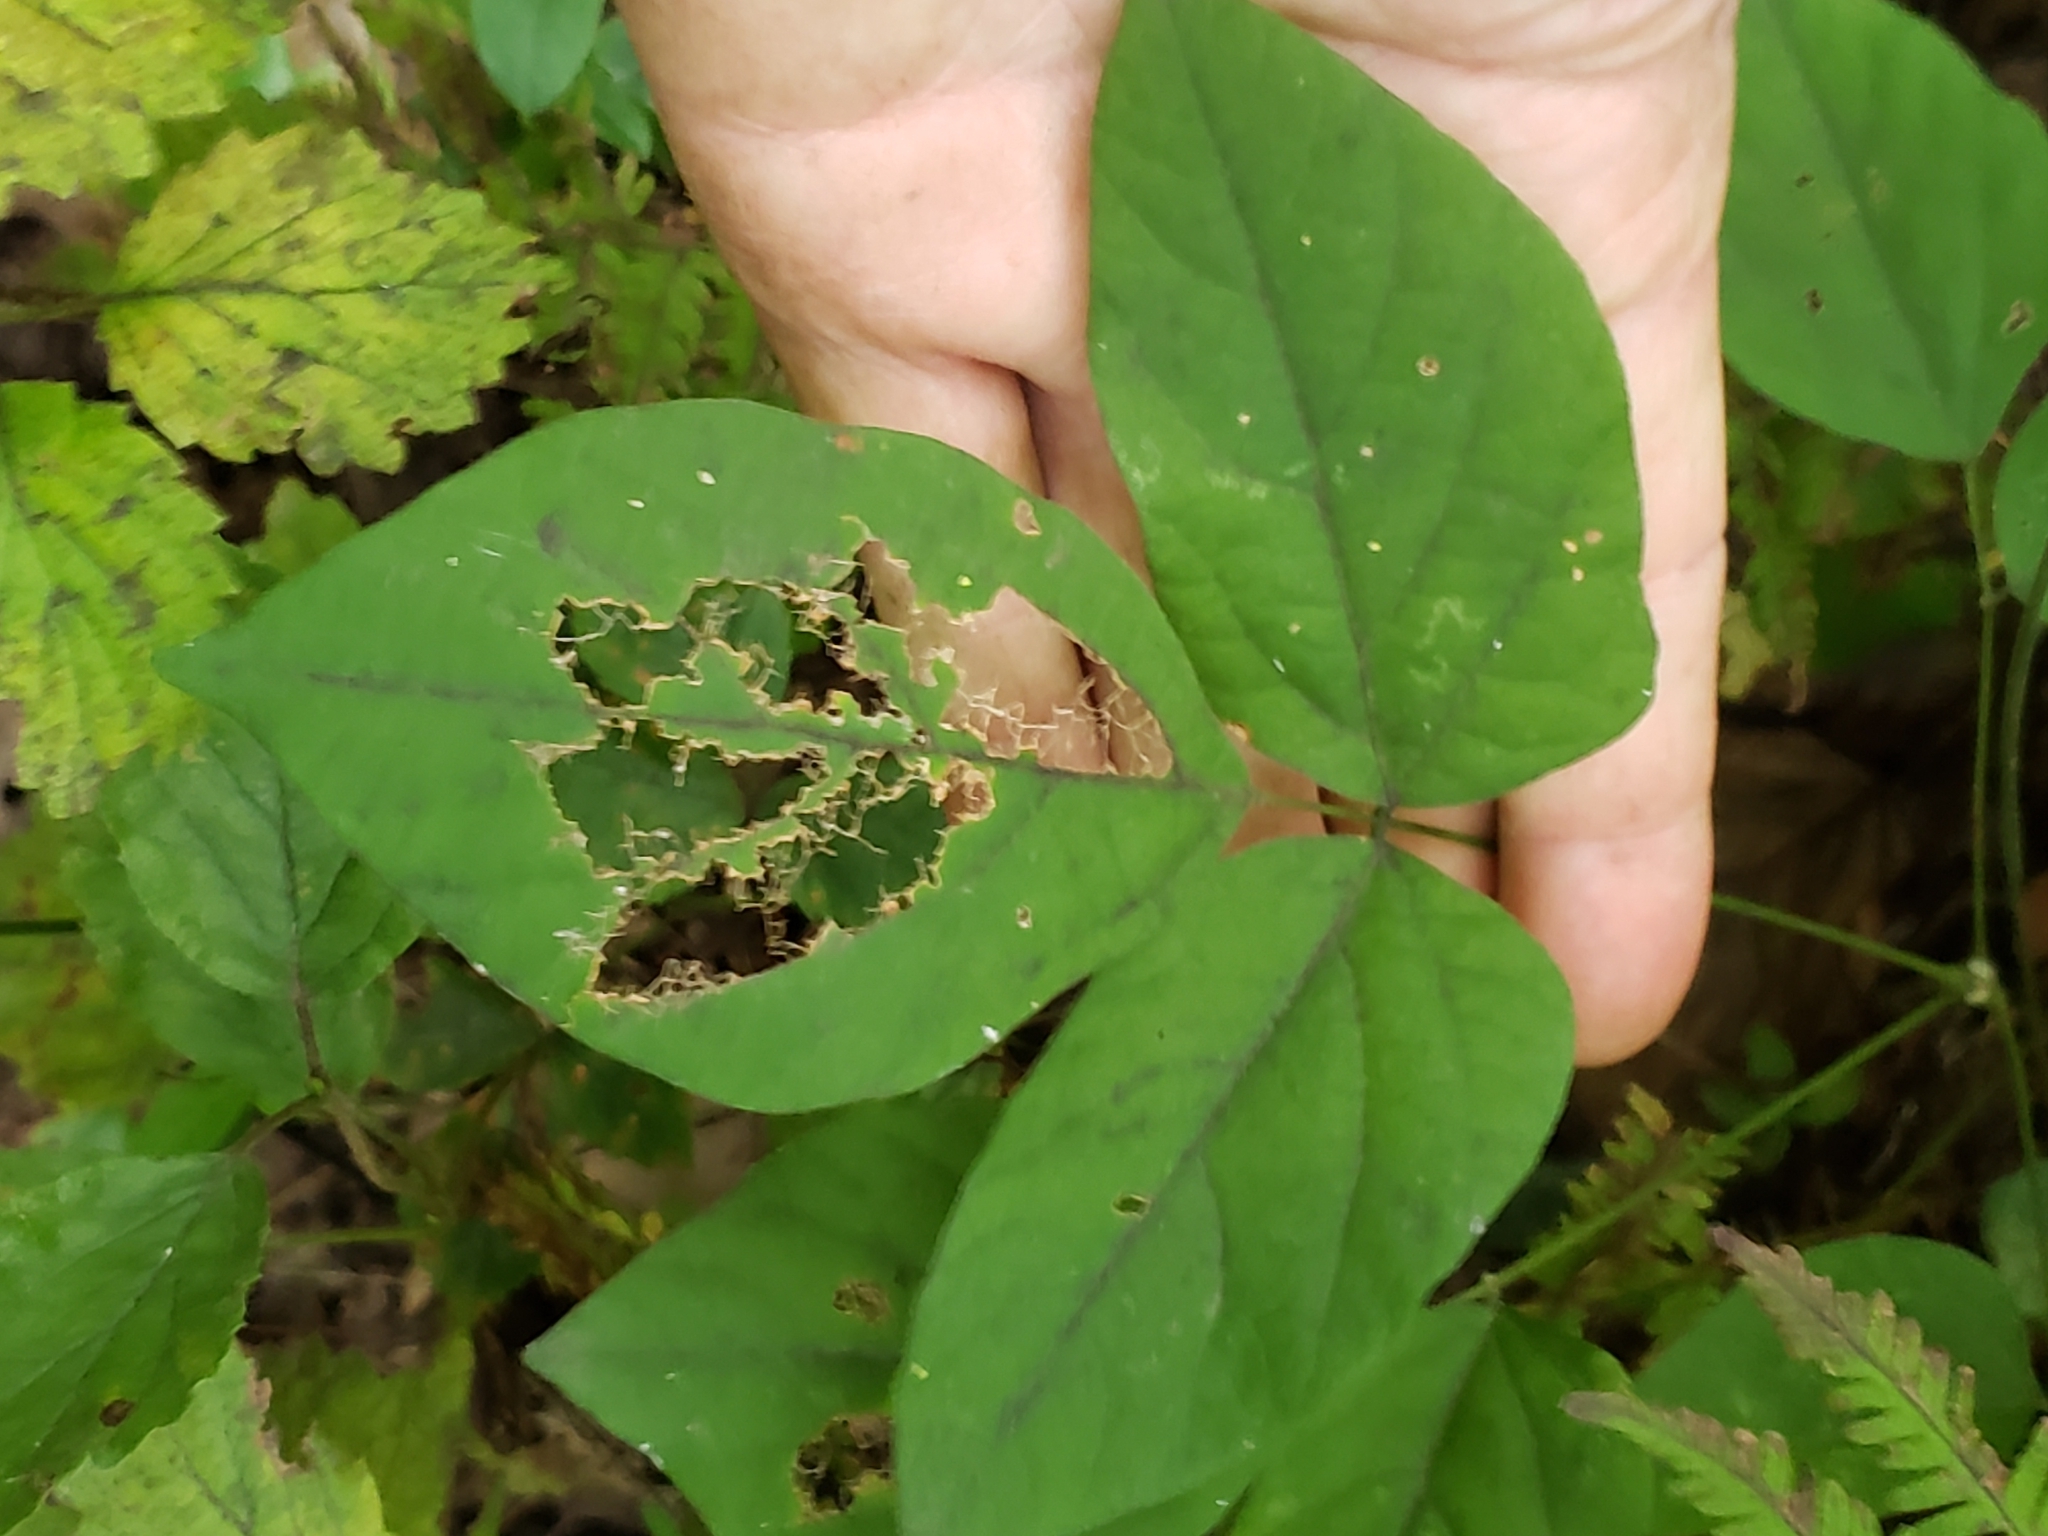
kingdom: Plantae
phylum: Tracheophyta
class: Magnoliopsida
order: Fabales
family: Fabaceae
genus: Hylodesmum
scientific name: Hylodesmum nudiflorum
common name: Bare-stemmed tick-trefoil
